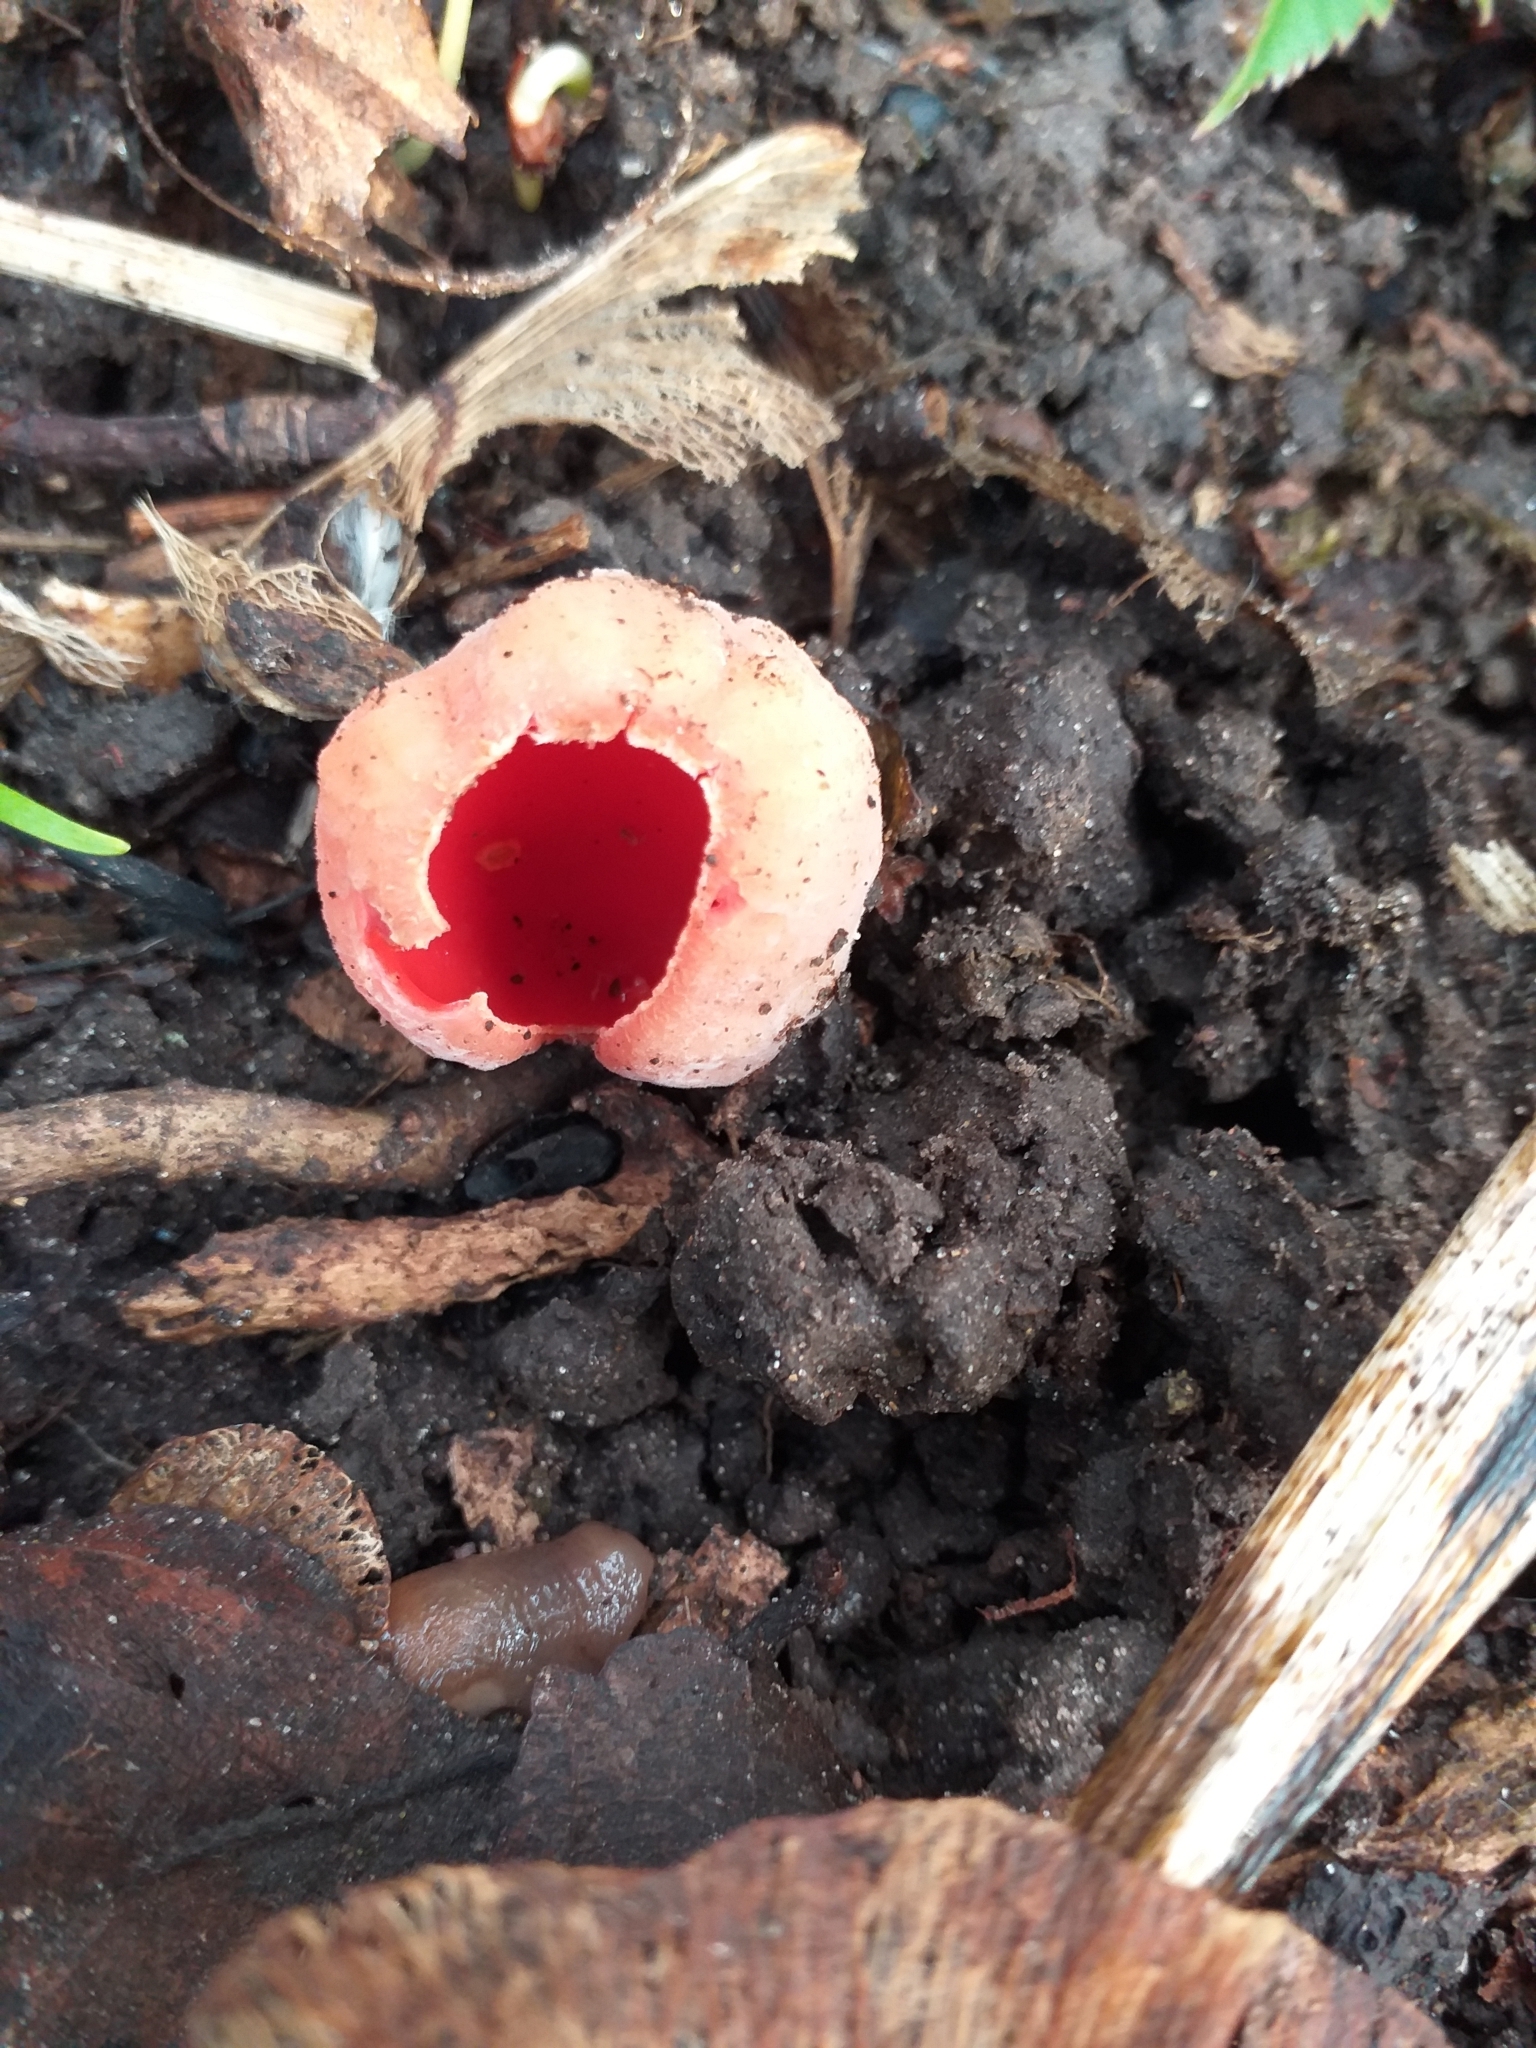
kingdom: Fungi
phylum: Ascomycota
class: Pezizomycetes
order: Pezizales
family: Sarcoscyphaceae
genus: Sarcoscypha
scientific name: Sarcoscypha
